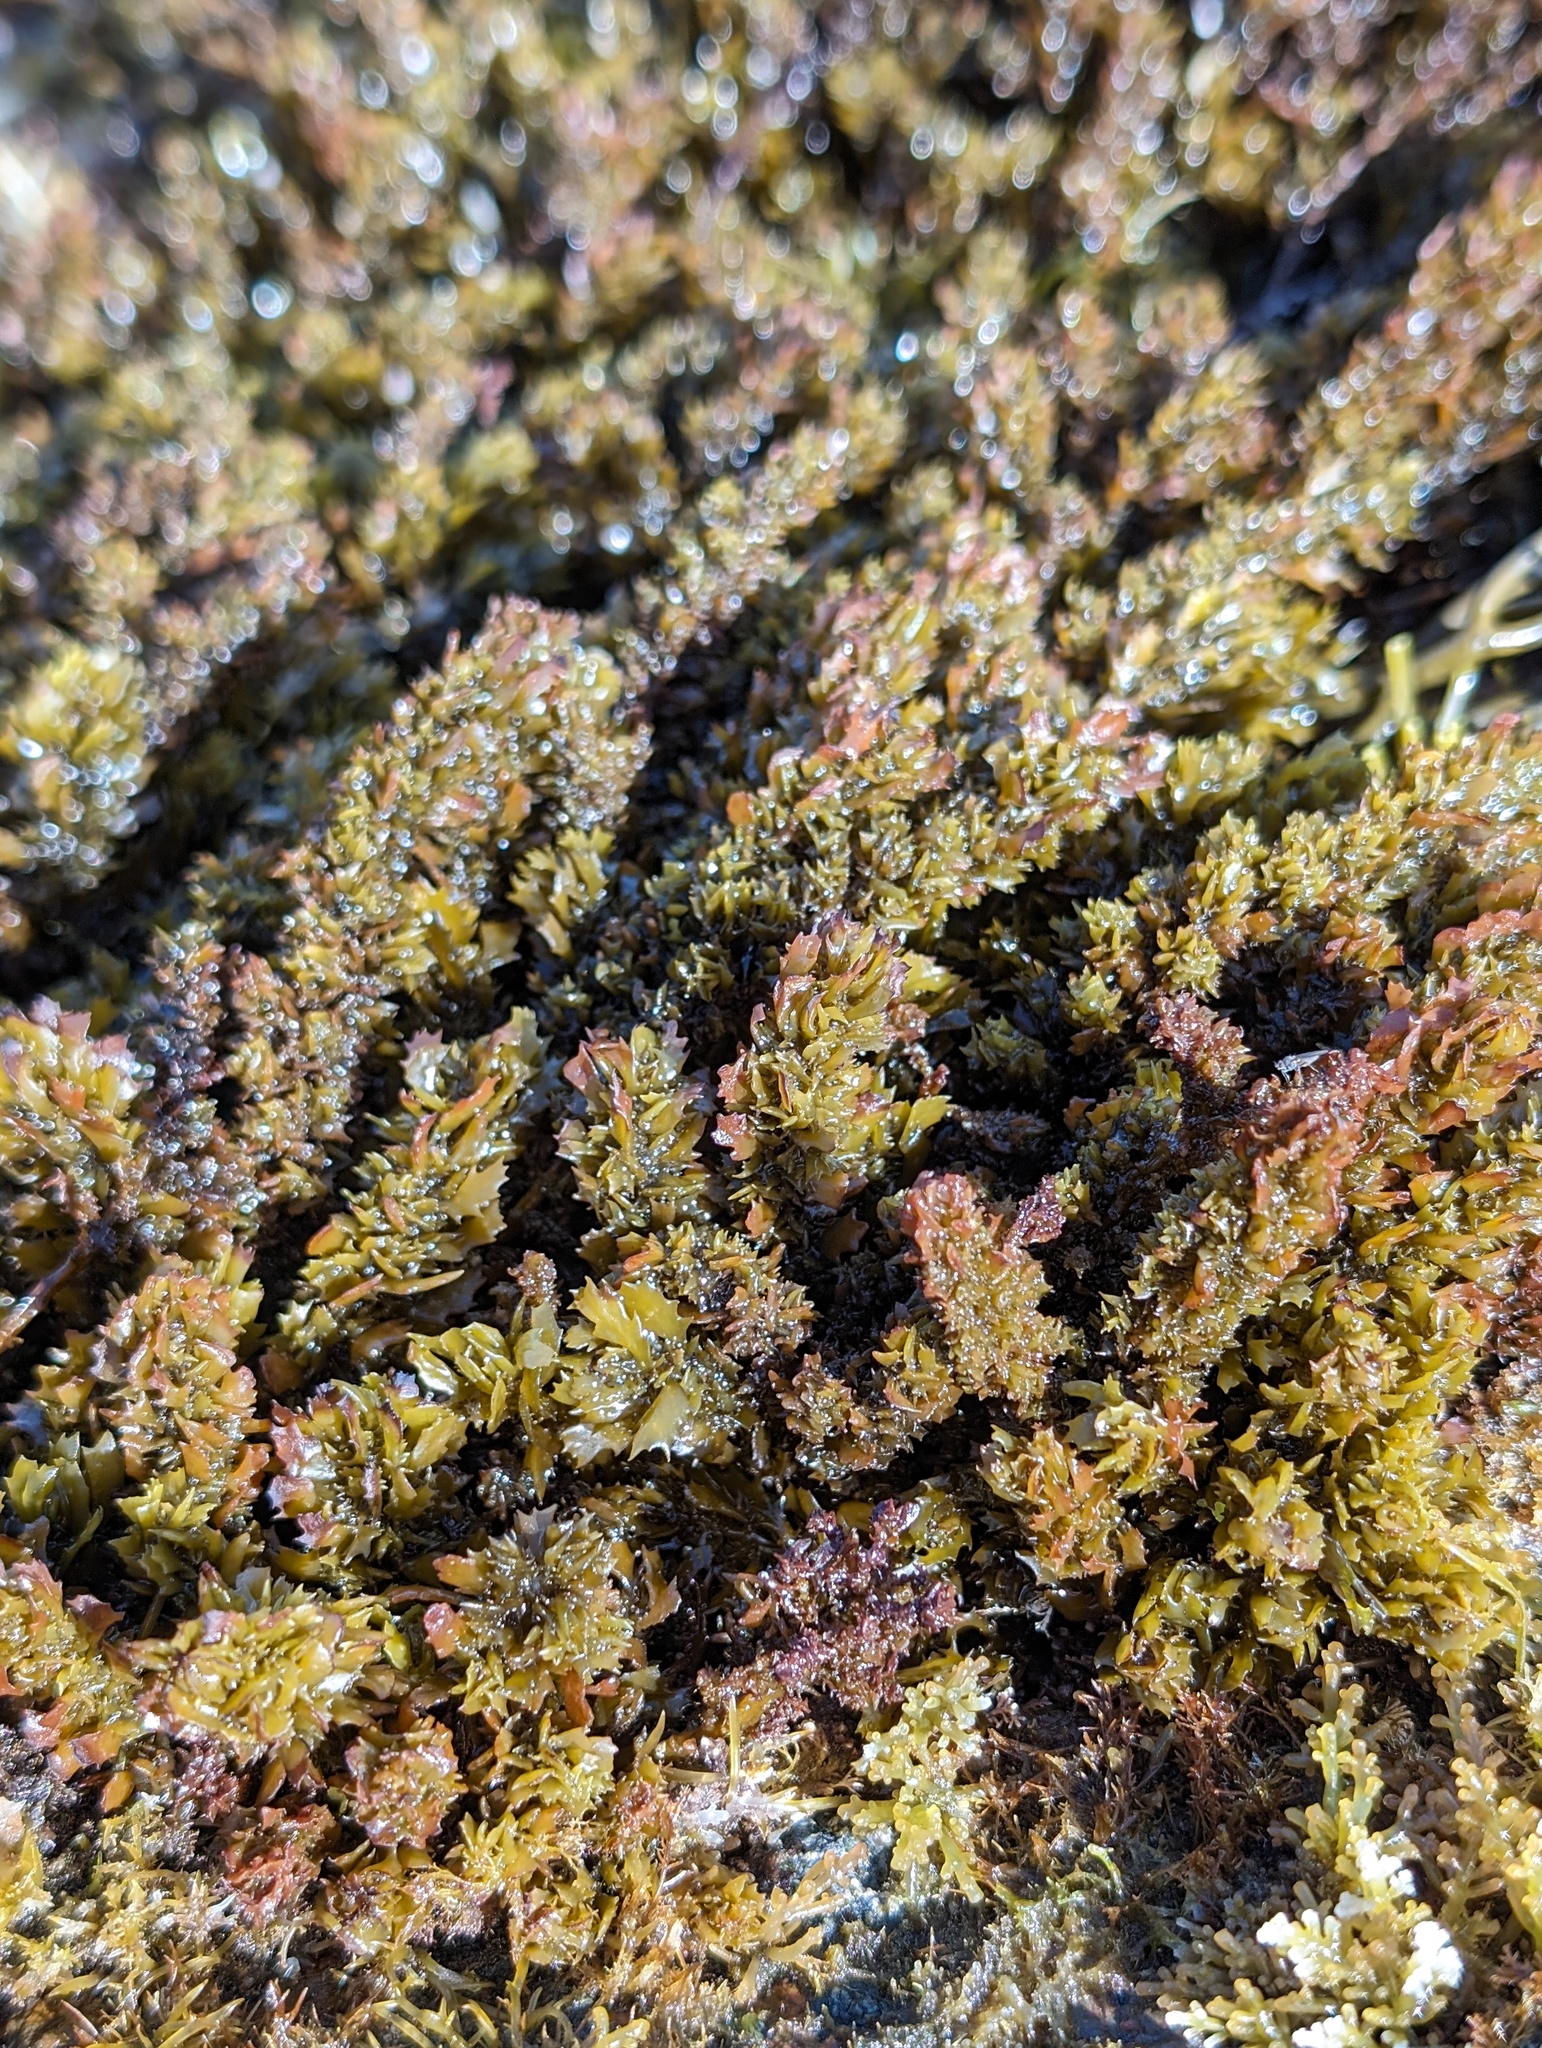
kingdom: Chromista
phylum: Ochrophyta
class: Phaeophyceae
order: Fucales
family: Sargassaceae
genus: Sargassum
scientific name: Sargassum agardhianum
